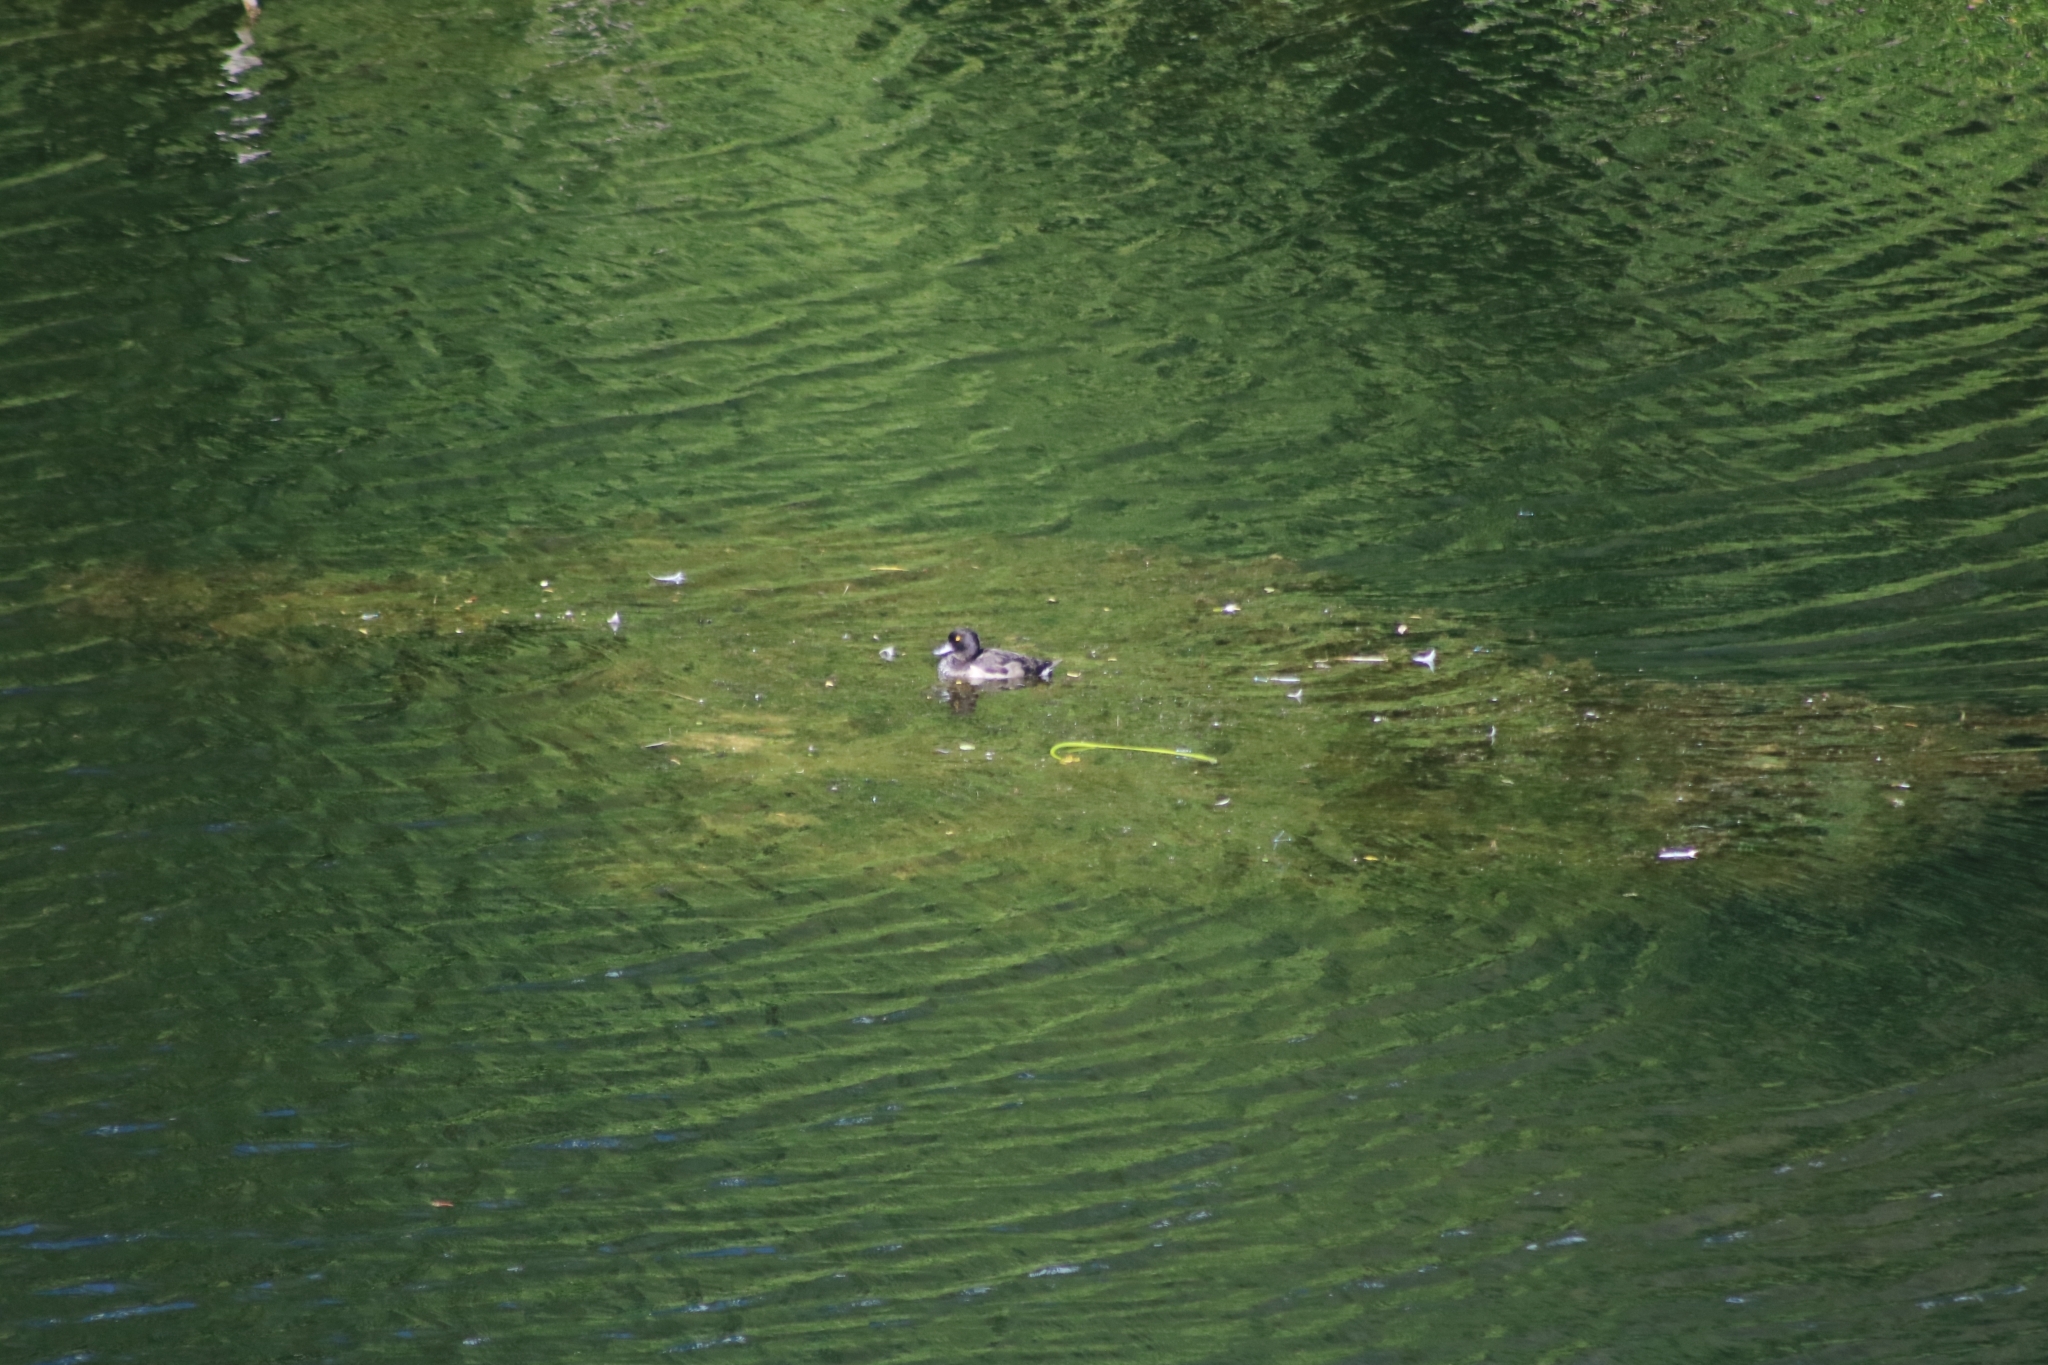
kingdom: Animalia
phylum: Chordata
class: Aves
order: Anseriformes
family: Anatidae
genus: Aythya
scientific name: Aythya fuligula
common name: Tufted duck
